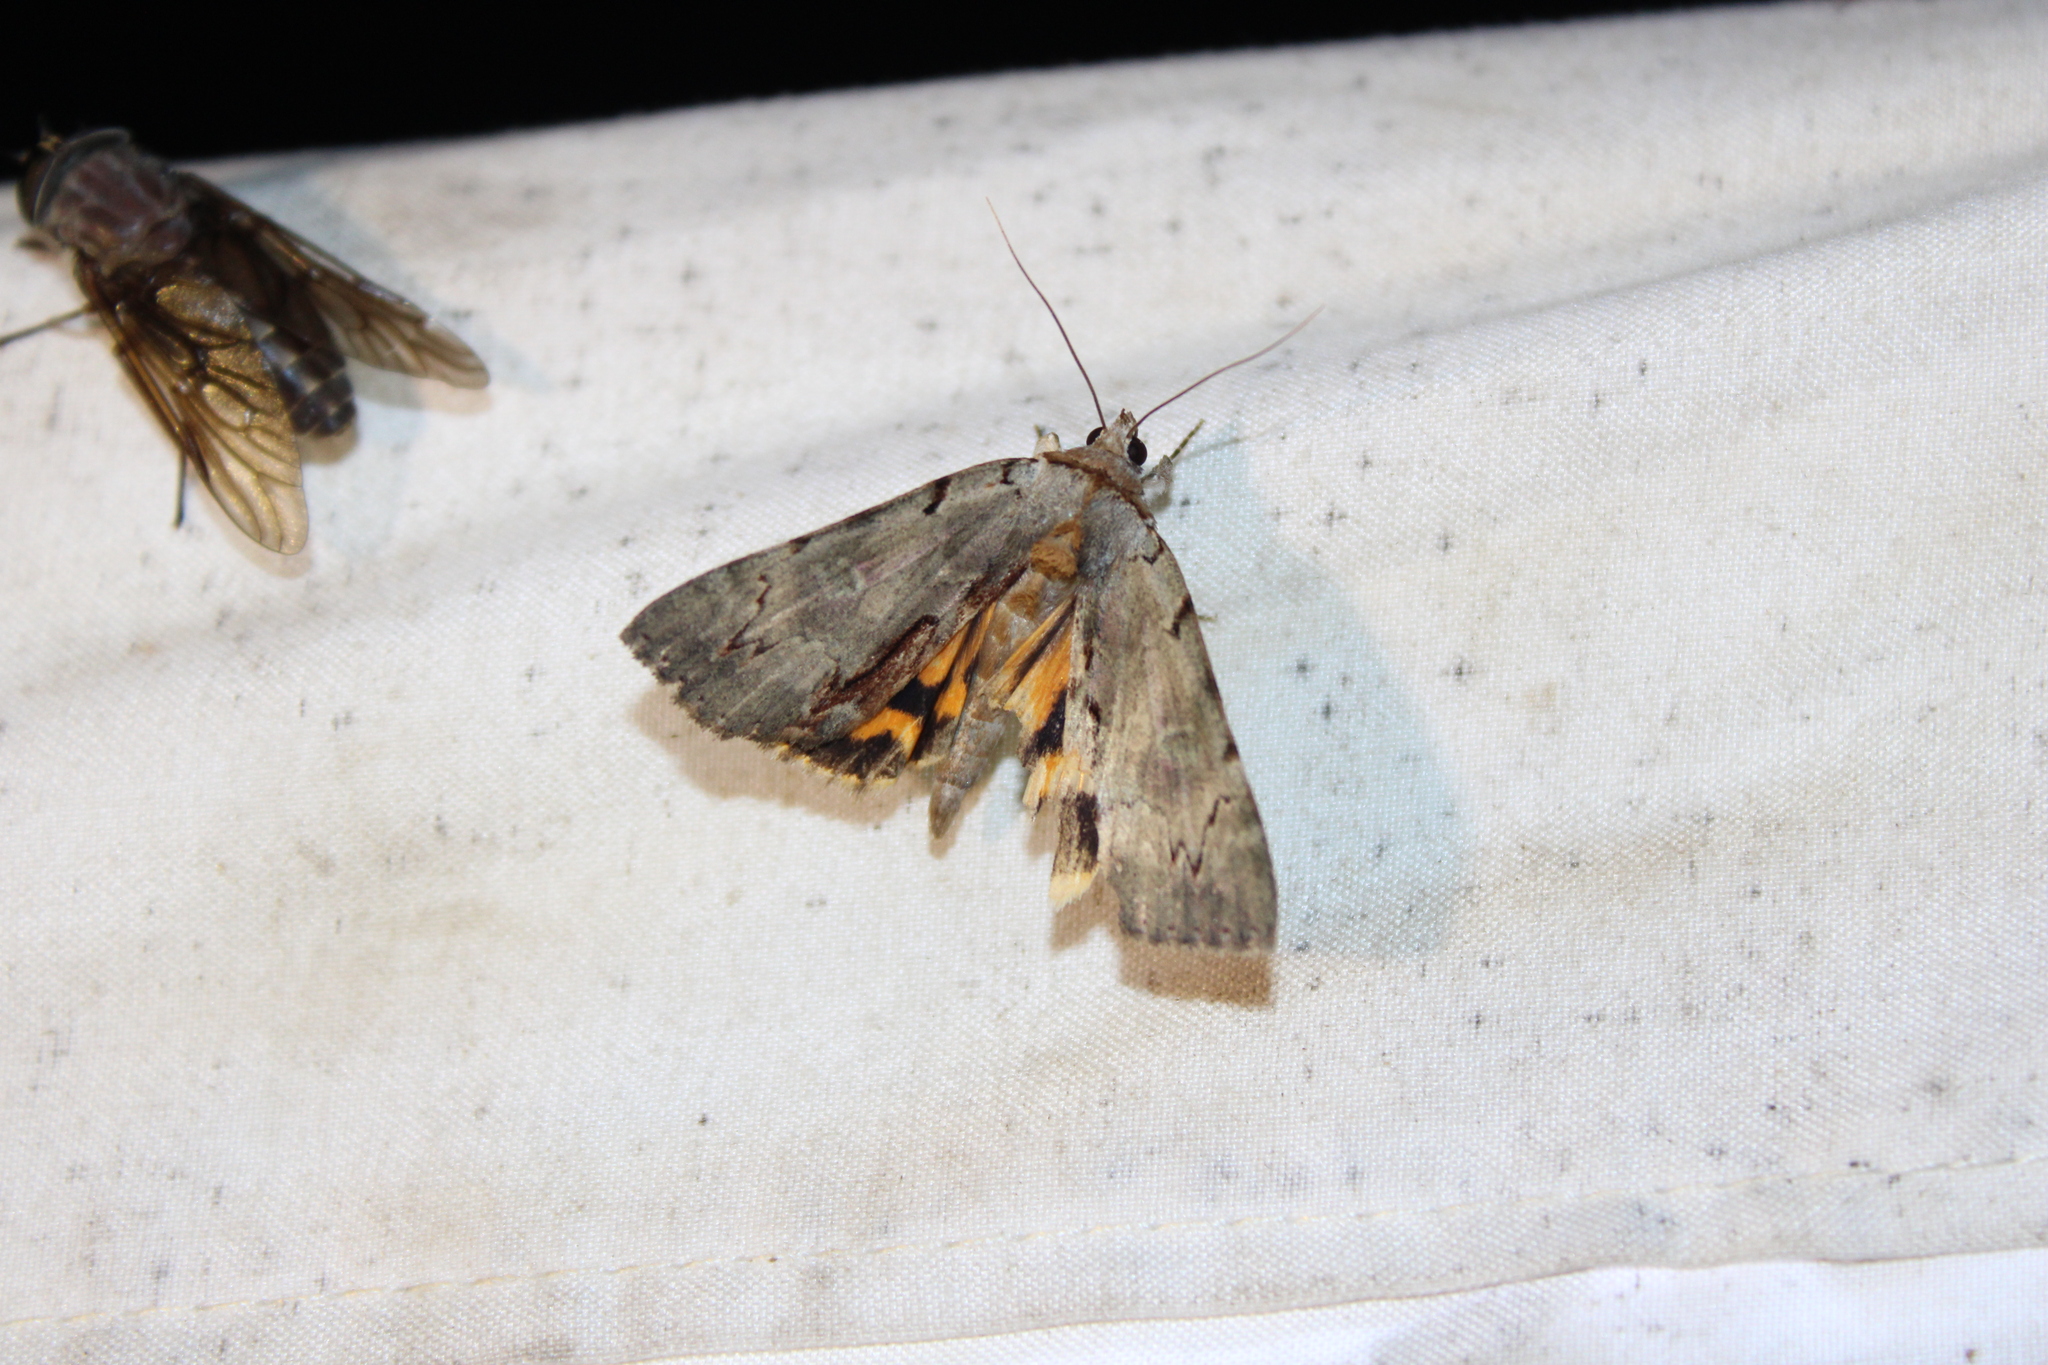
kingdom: Animalia
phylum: Arthropoda
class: Insecta
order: Lepidoptera
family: Erebidae
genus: Catocala
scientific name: Catocala grynea
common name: Woody underwing
